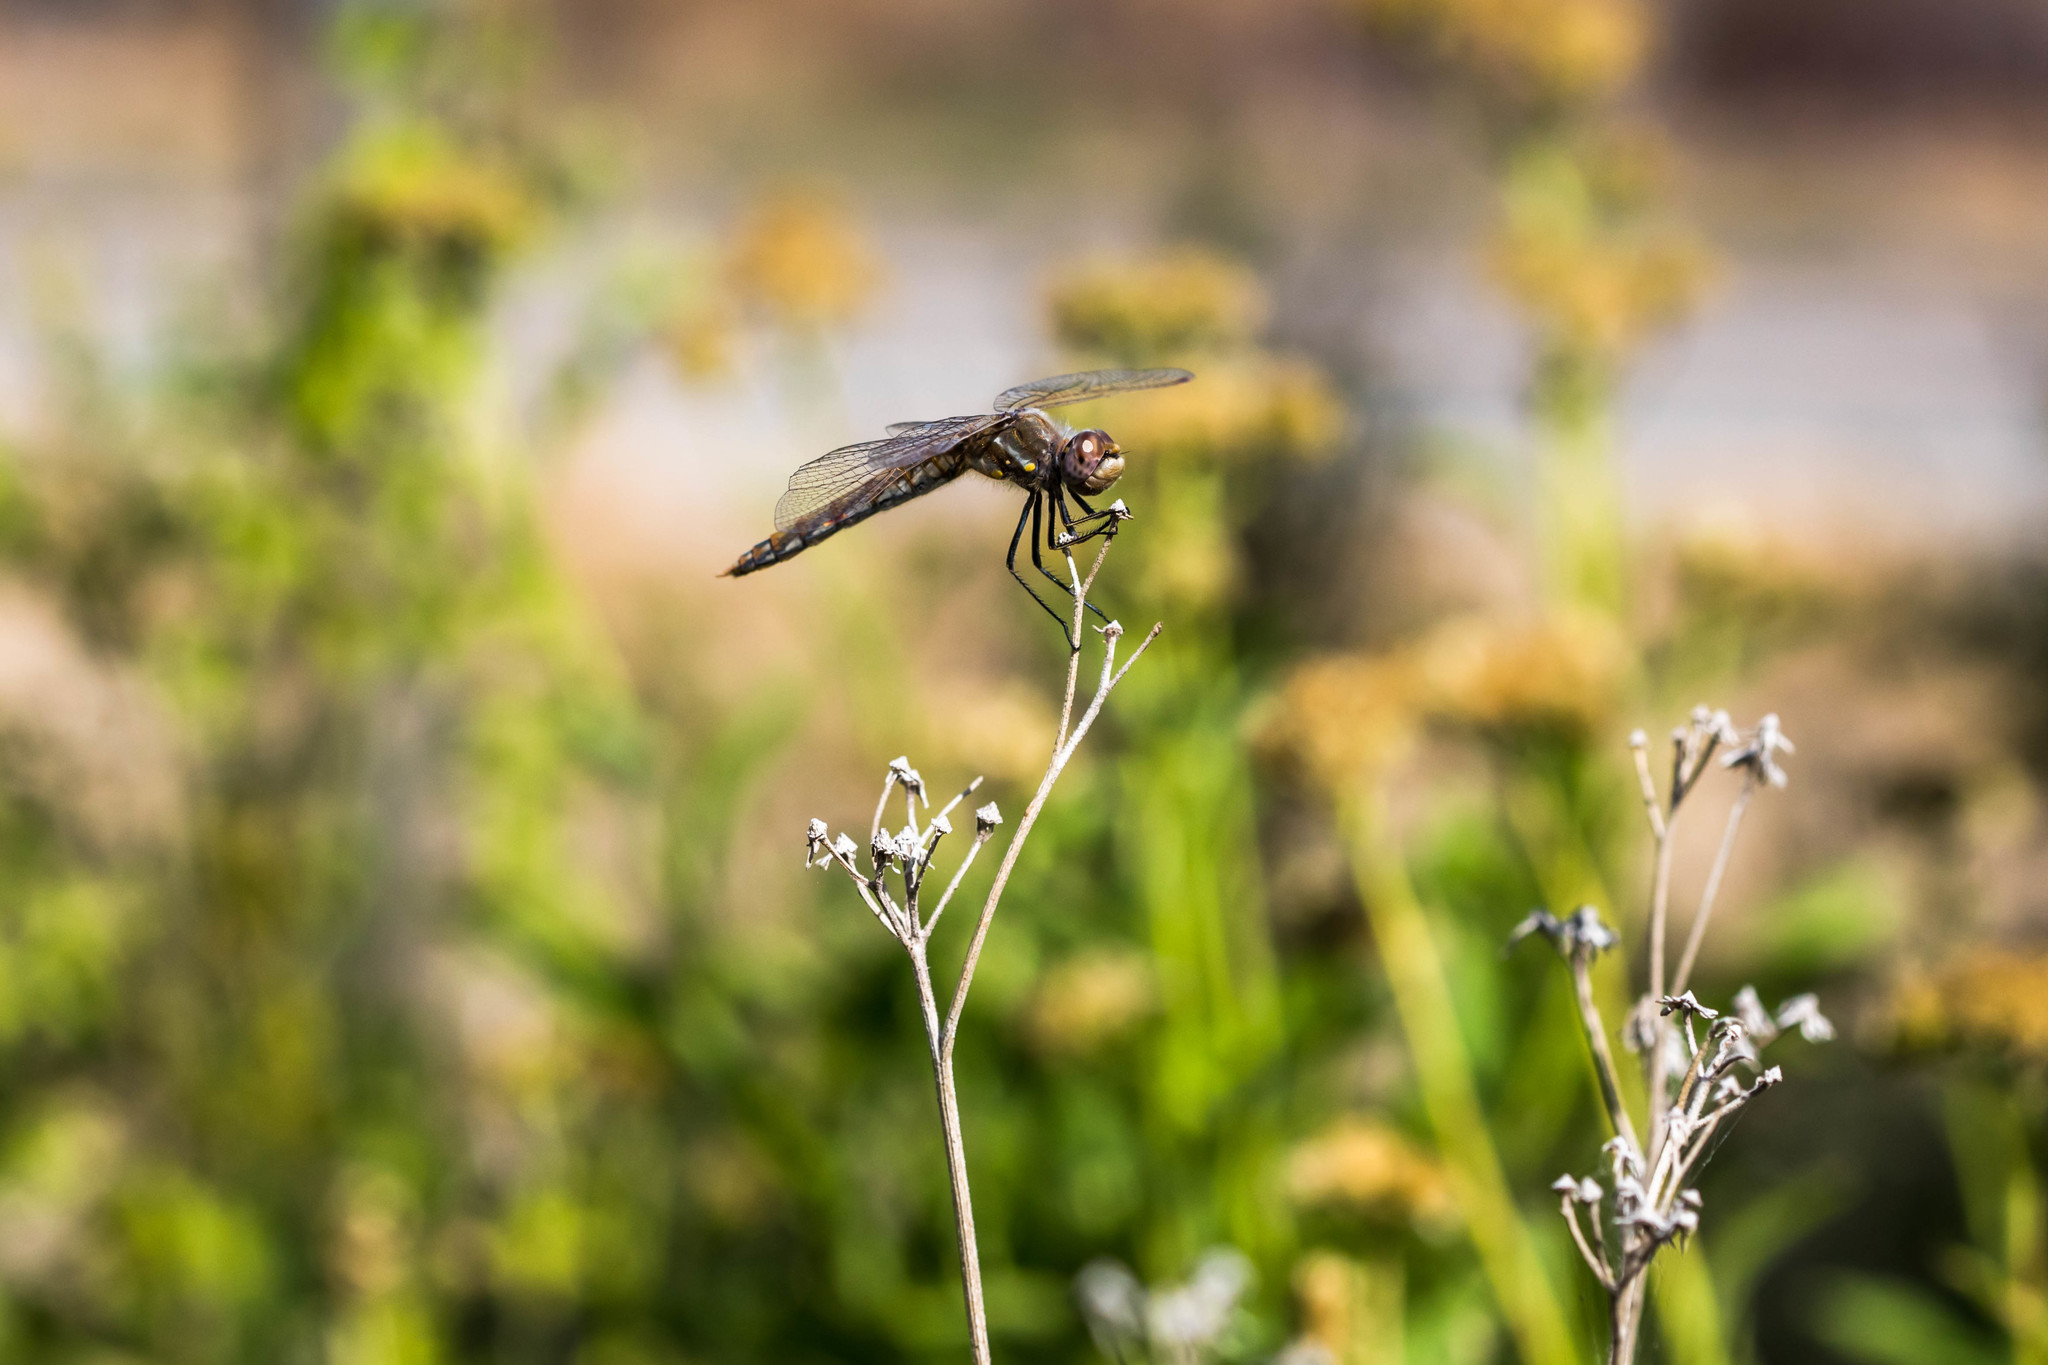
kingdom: Animalia
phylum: Arthropoda
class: Insecta
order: Odonata
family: Libellulidae
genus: Sympetrum
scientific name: Sympetrum corruptum
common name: Variegated meadowhawk
